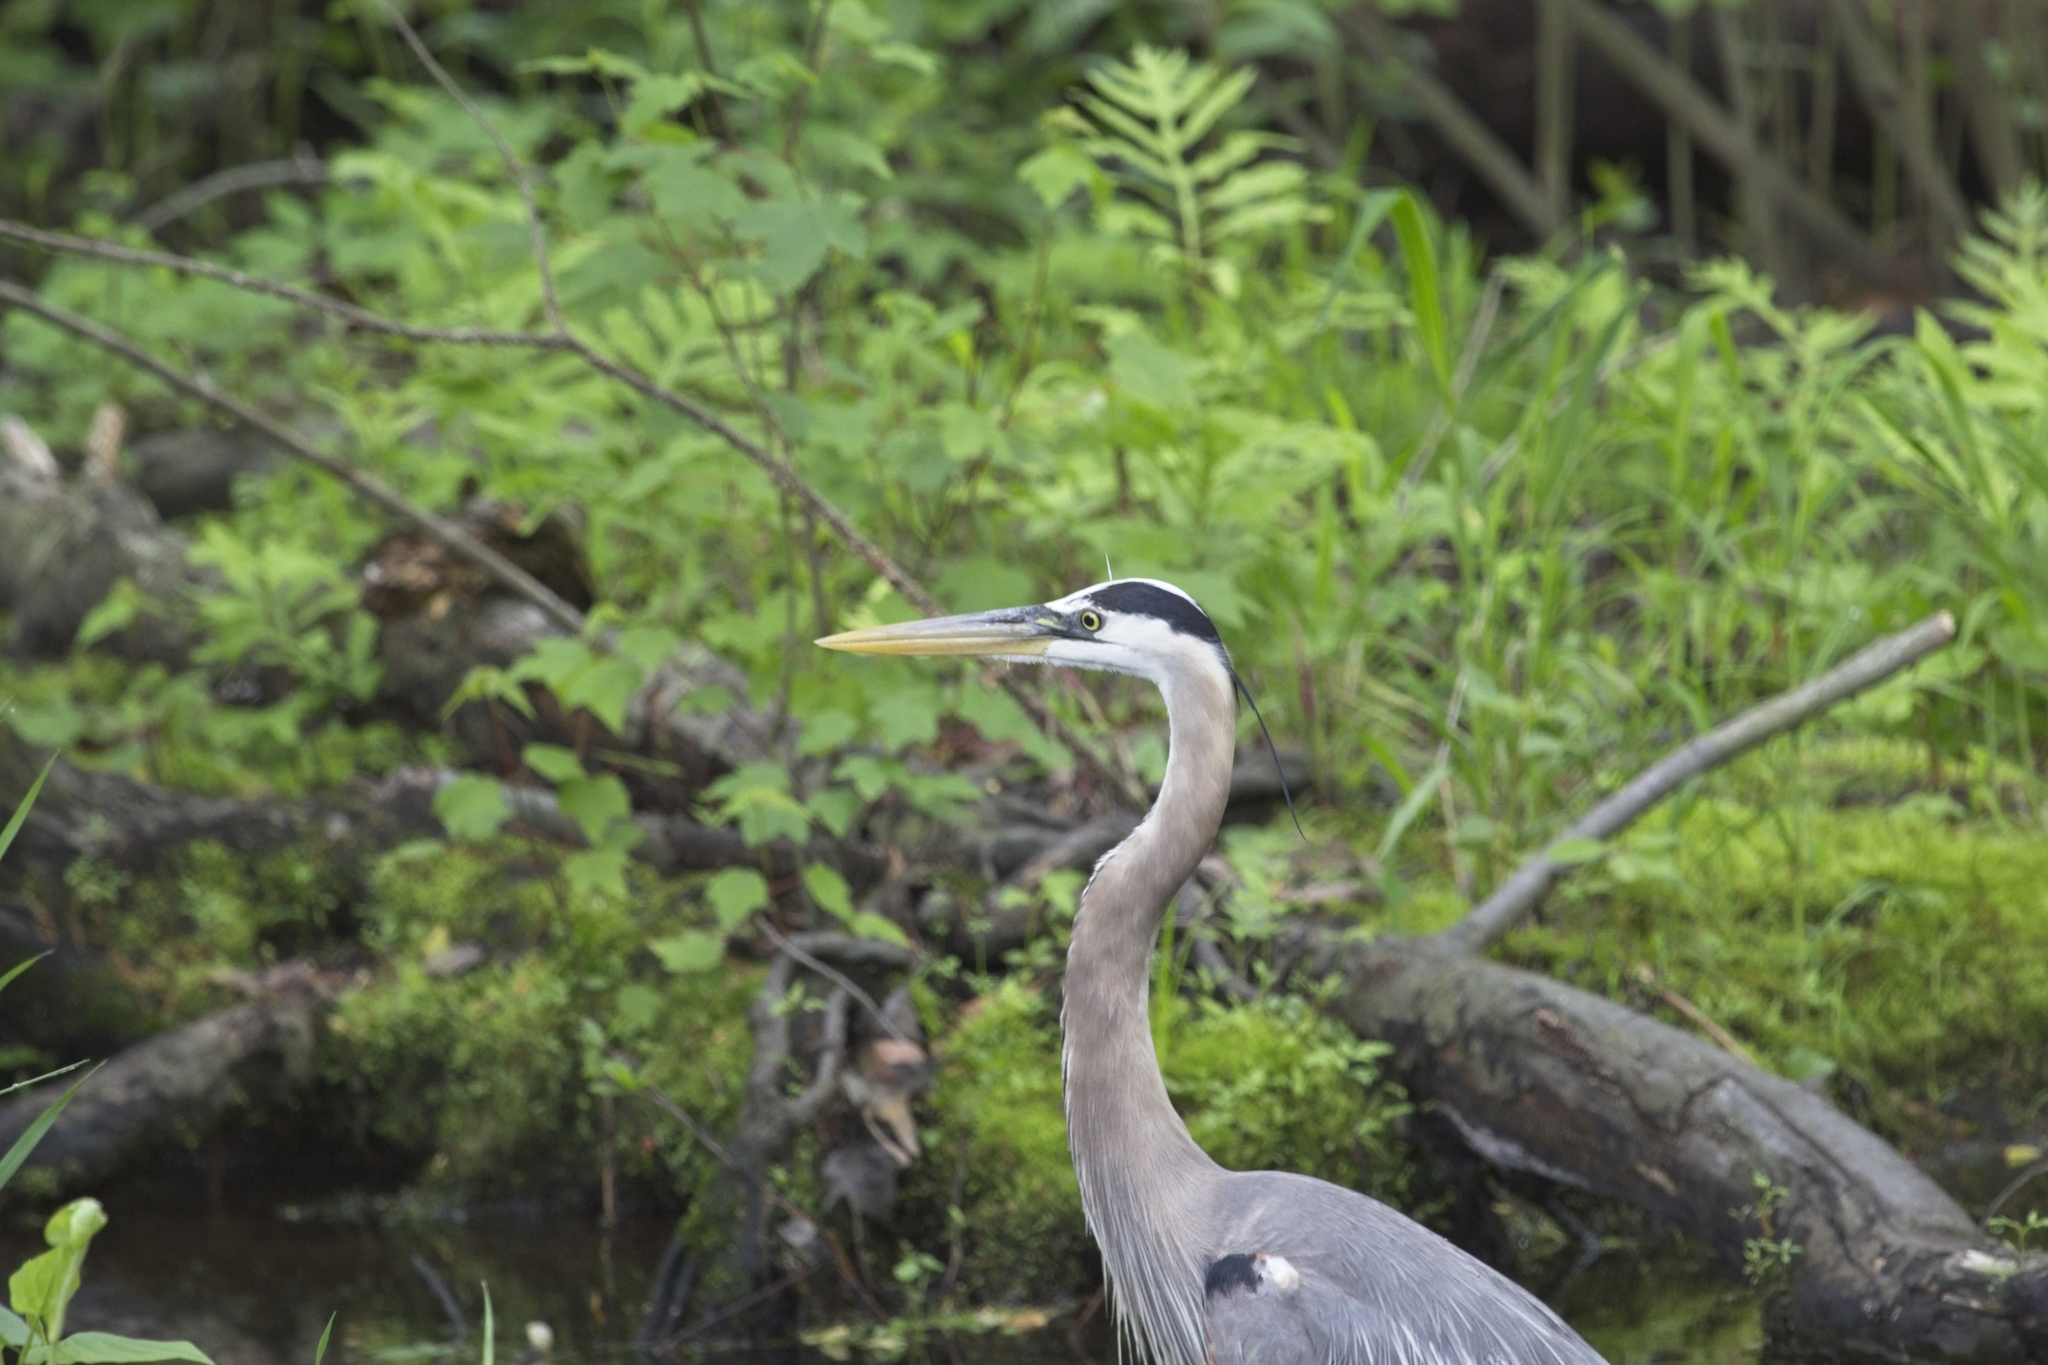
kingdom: Animalia
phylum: Chordata
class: Aves
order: Pelecaniformes
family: Ardeidae
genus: Ardea
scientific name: Ardea herodias
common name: Great blue heron
